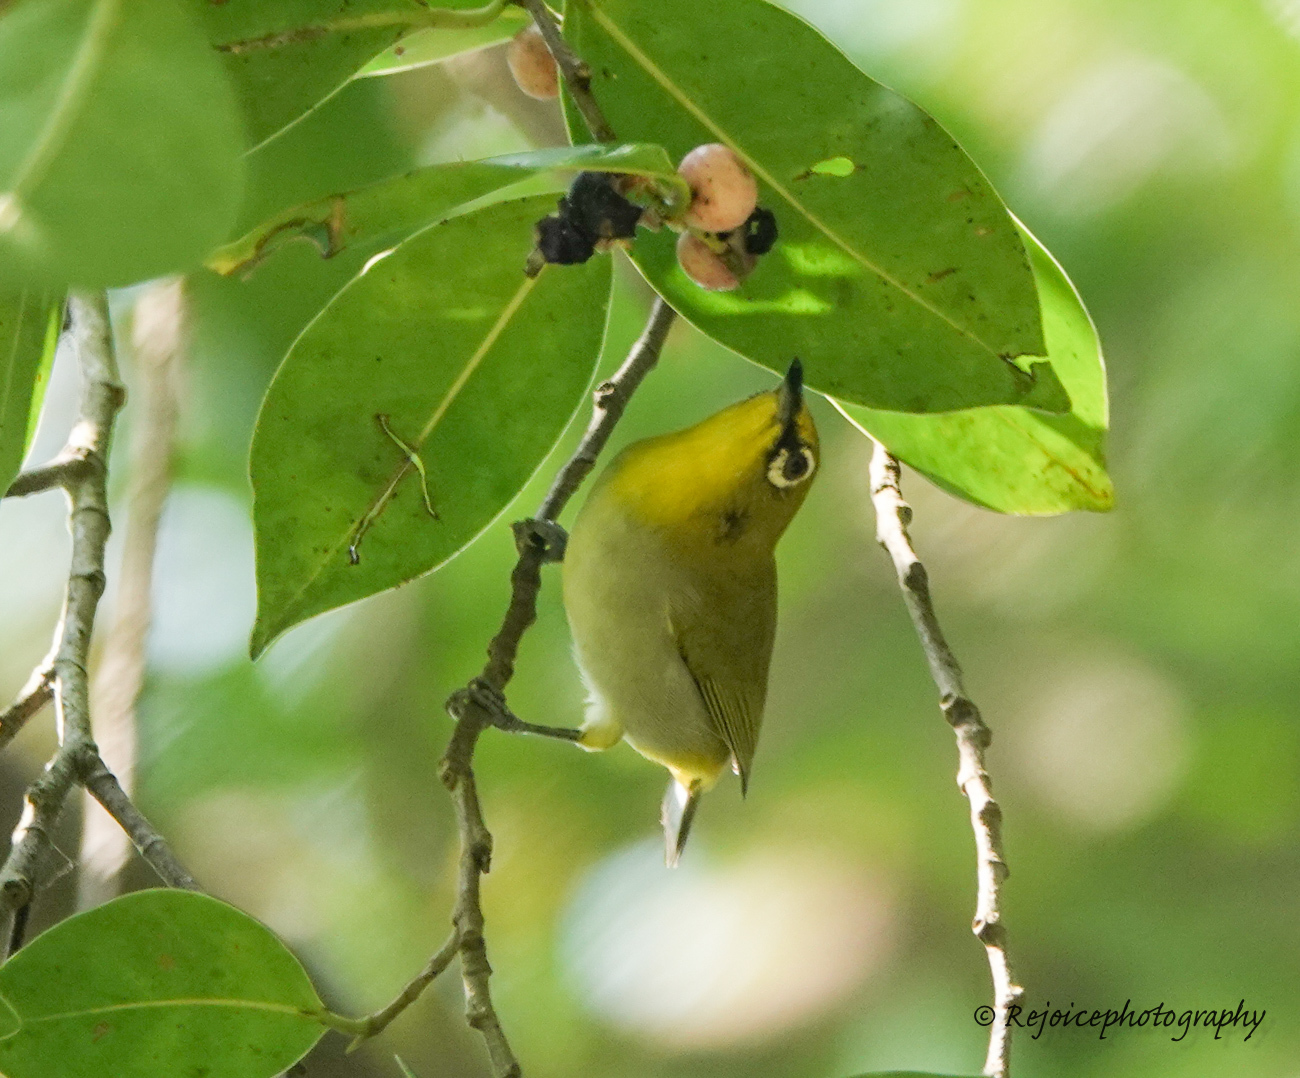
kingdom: Animalia
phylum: Chordata
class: Aves
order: Passeriformes
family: Zosteropidae
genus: Zosterops
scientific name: Zosterops palpebrosus
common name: Oriental white-eye
